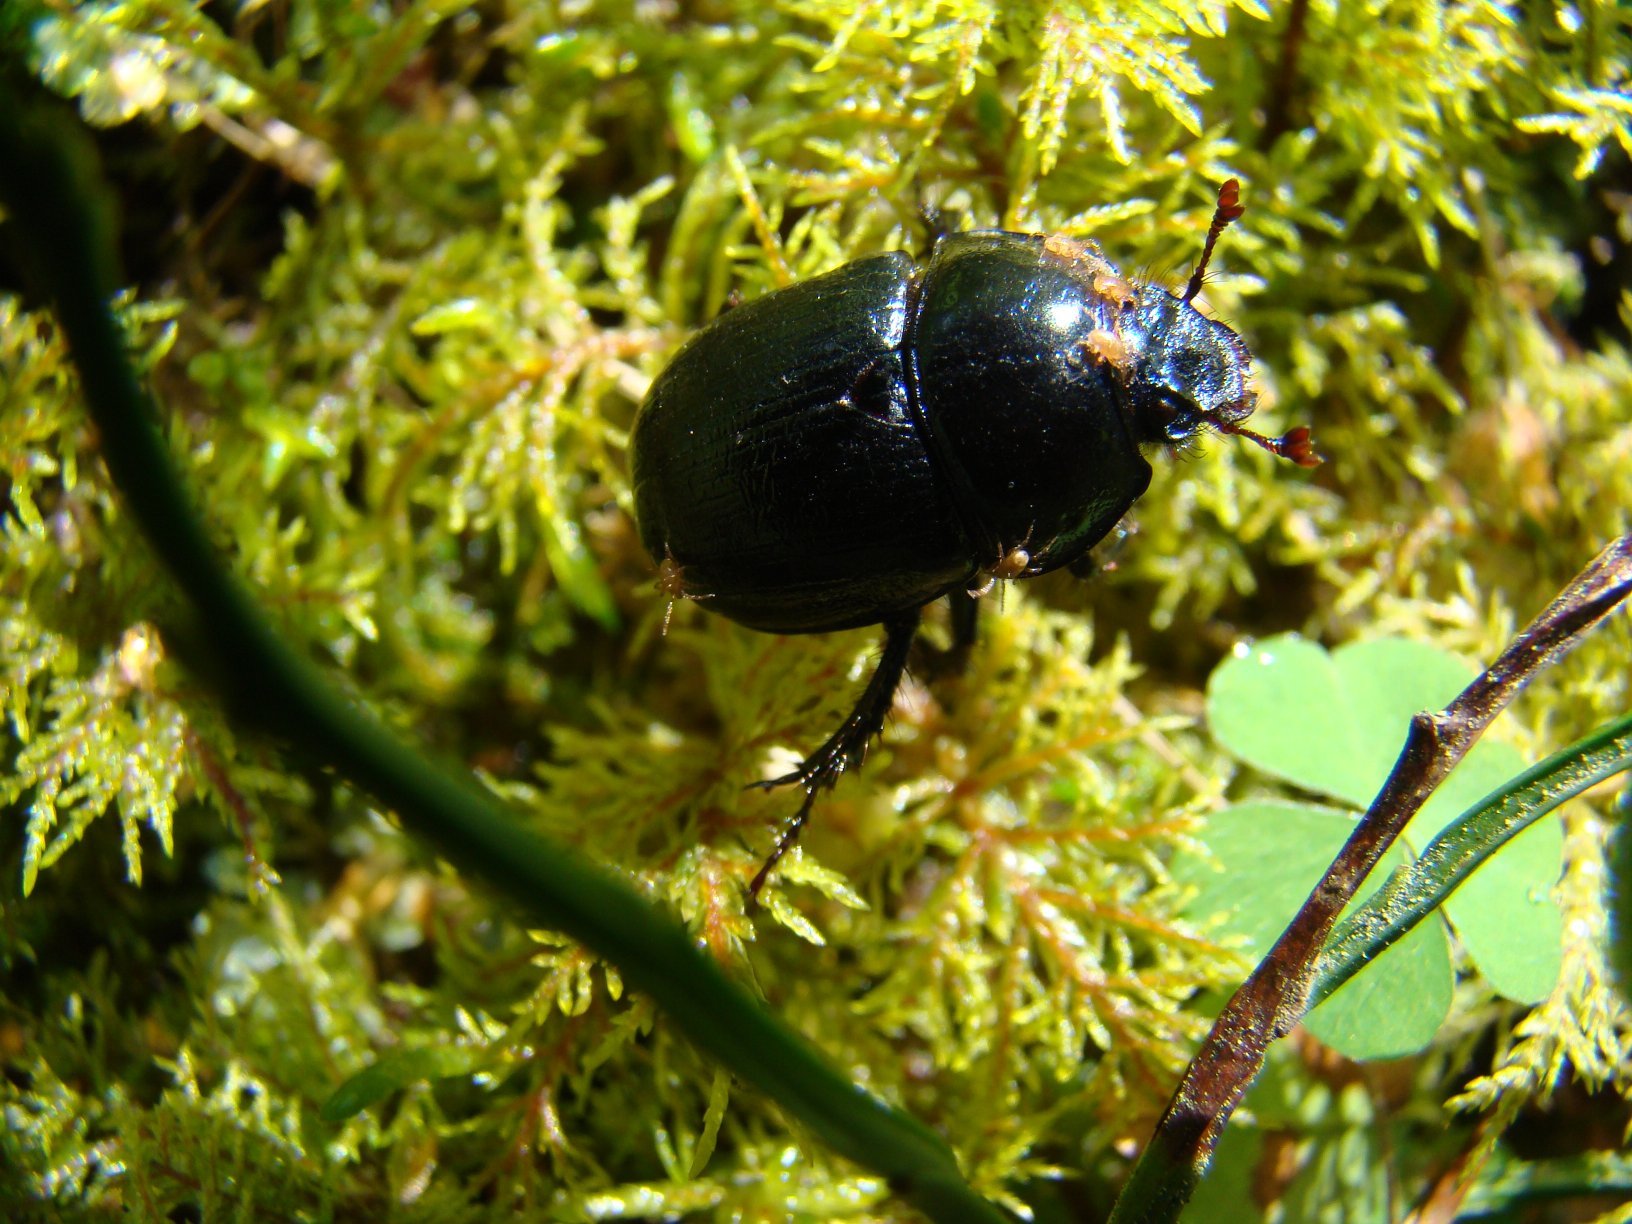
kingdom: Animalia
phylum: Arthropoda
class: Insecta
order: Coleoptera
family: Geotrupidae
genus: Anoplotrupes
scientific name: Anoplotrupes stercorosus
